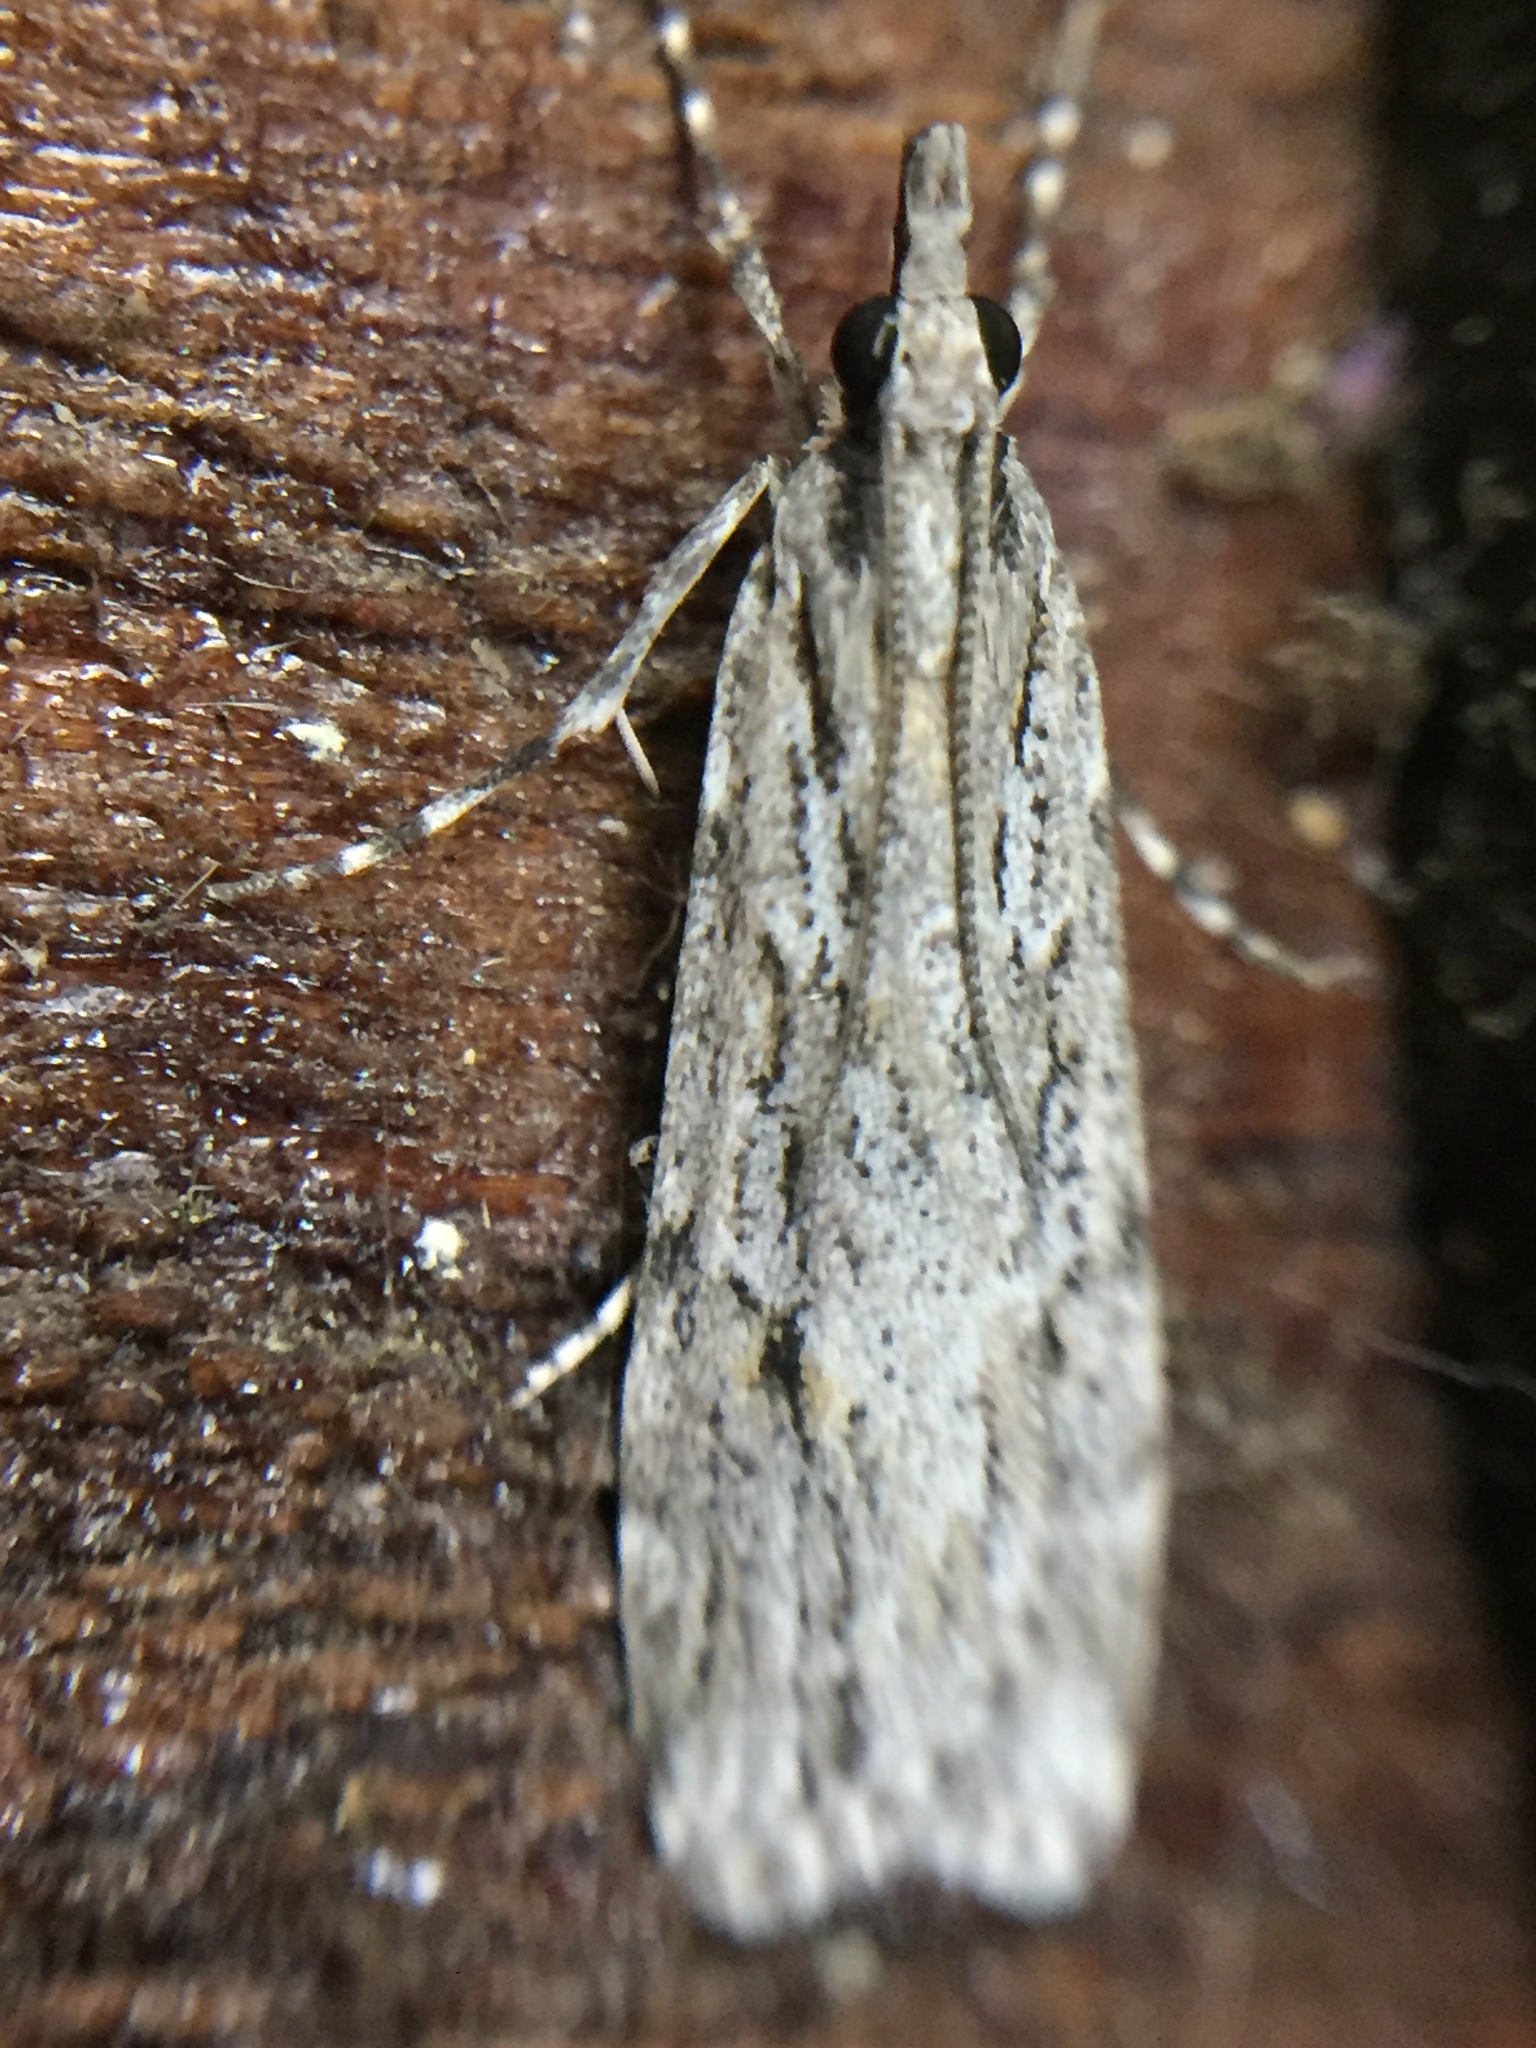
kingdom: Animalia
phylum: Arthropoda
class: Insecta
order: Lepidoptera
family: Crambidae
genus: Scoparia
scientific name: Scoparia chalicodes
